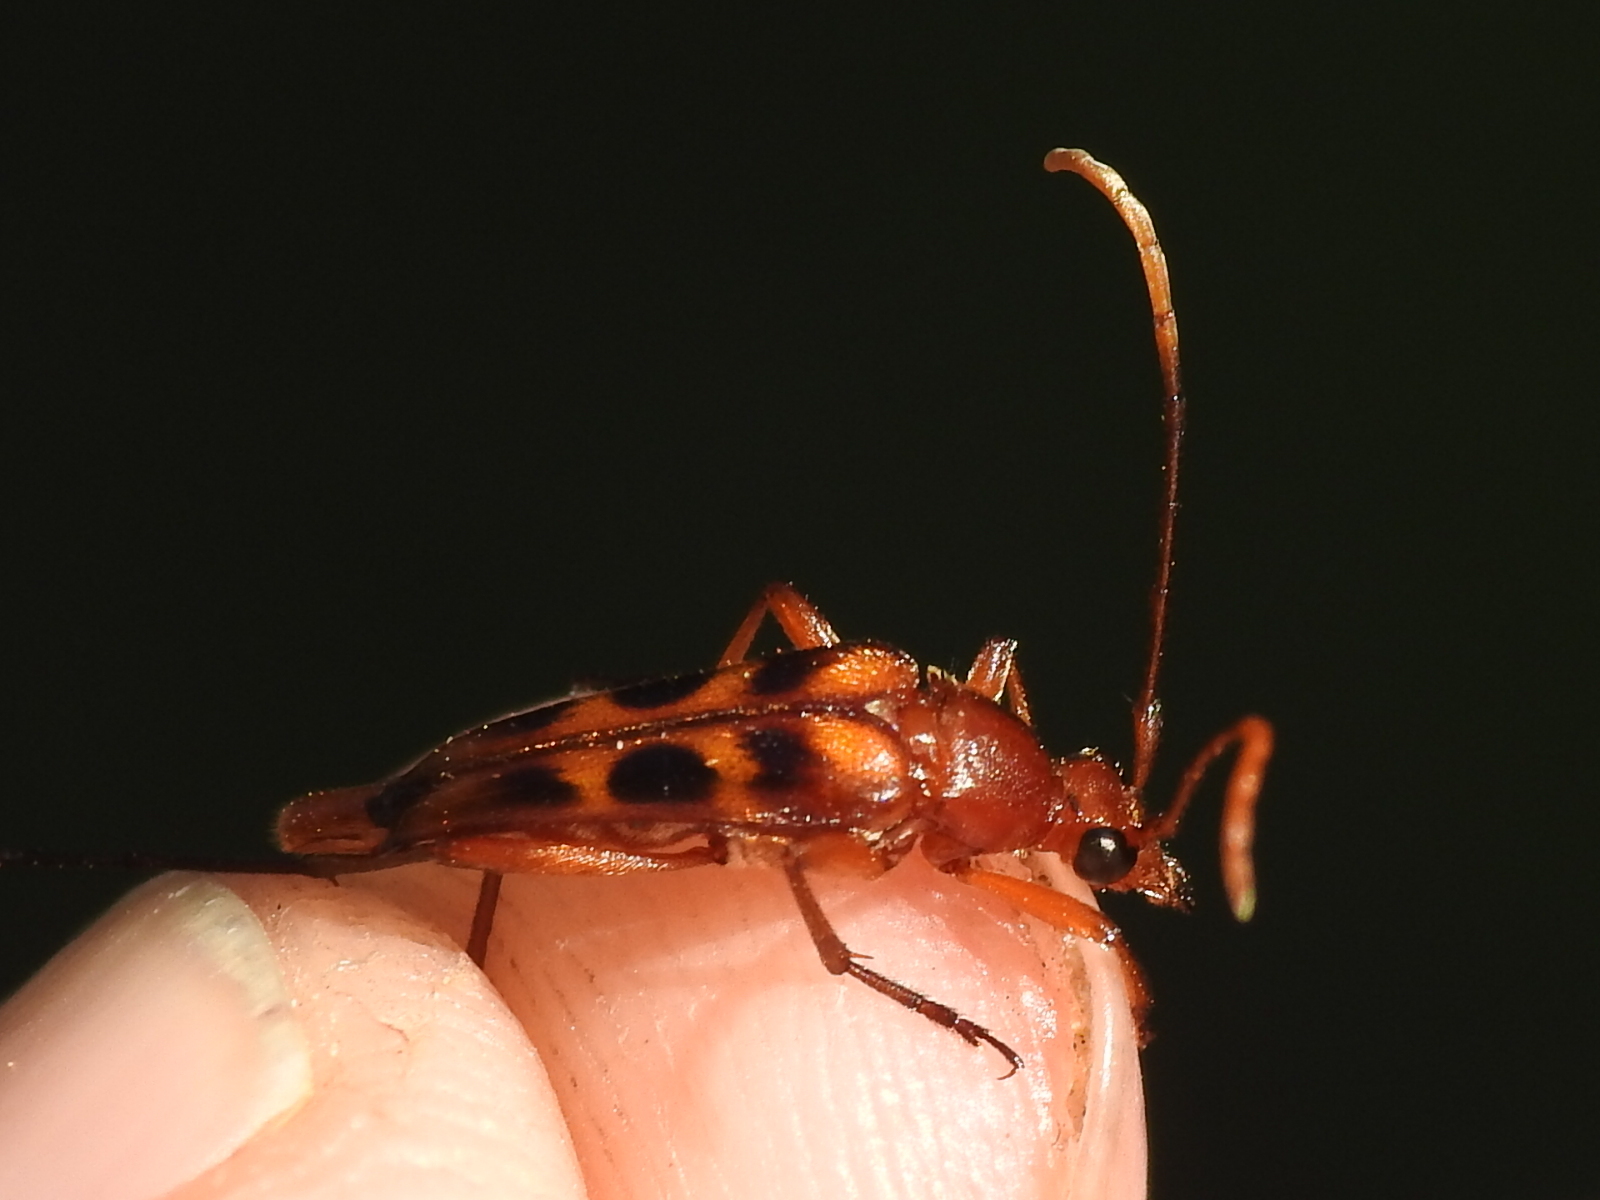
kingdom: Animalia
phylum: Arthropoda
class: Insecta
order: Coleoptera
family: Cerambycidae
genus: Strangalia
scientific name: Strangalia sexnotata
